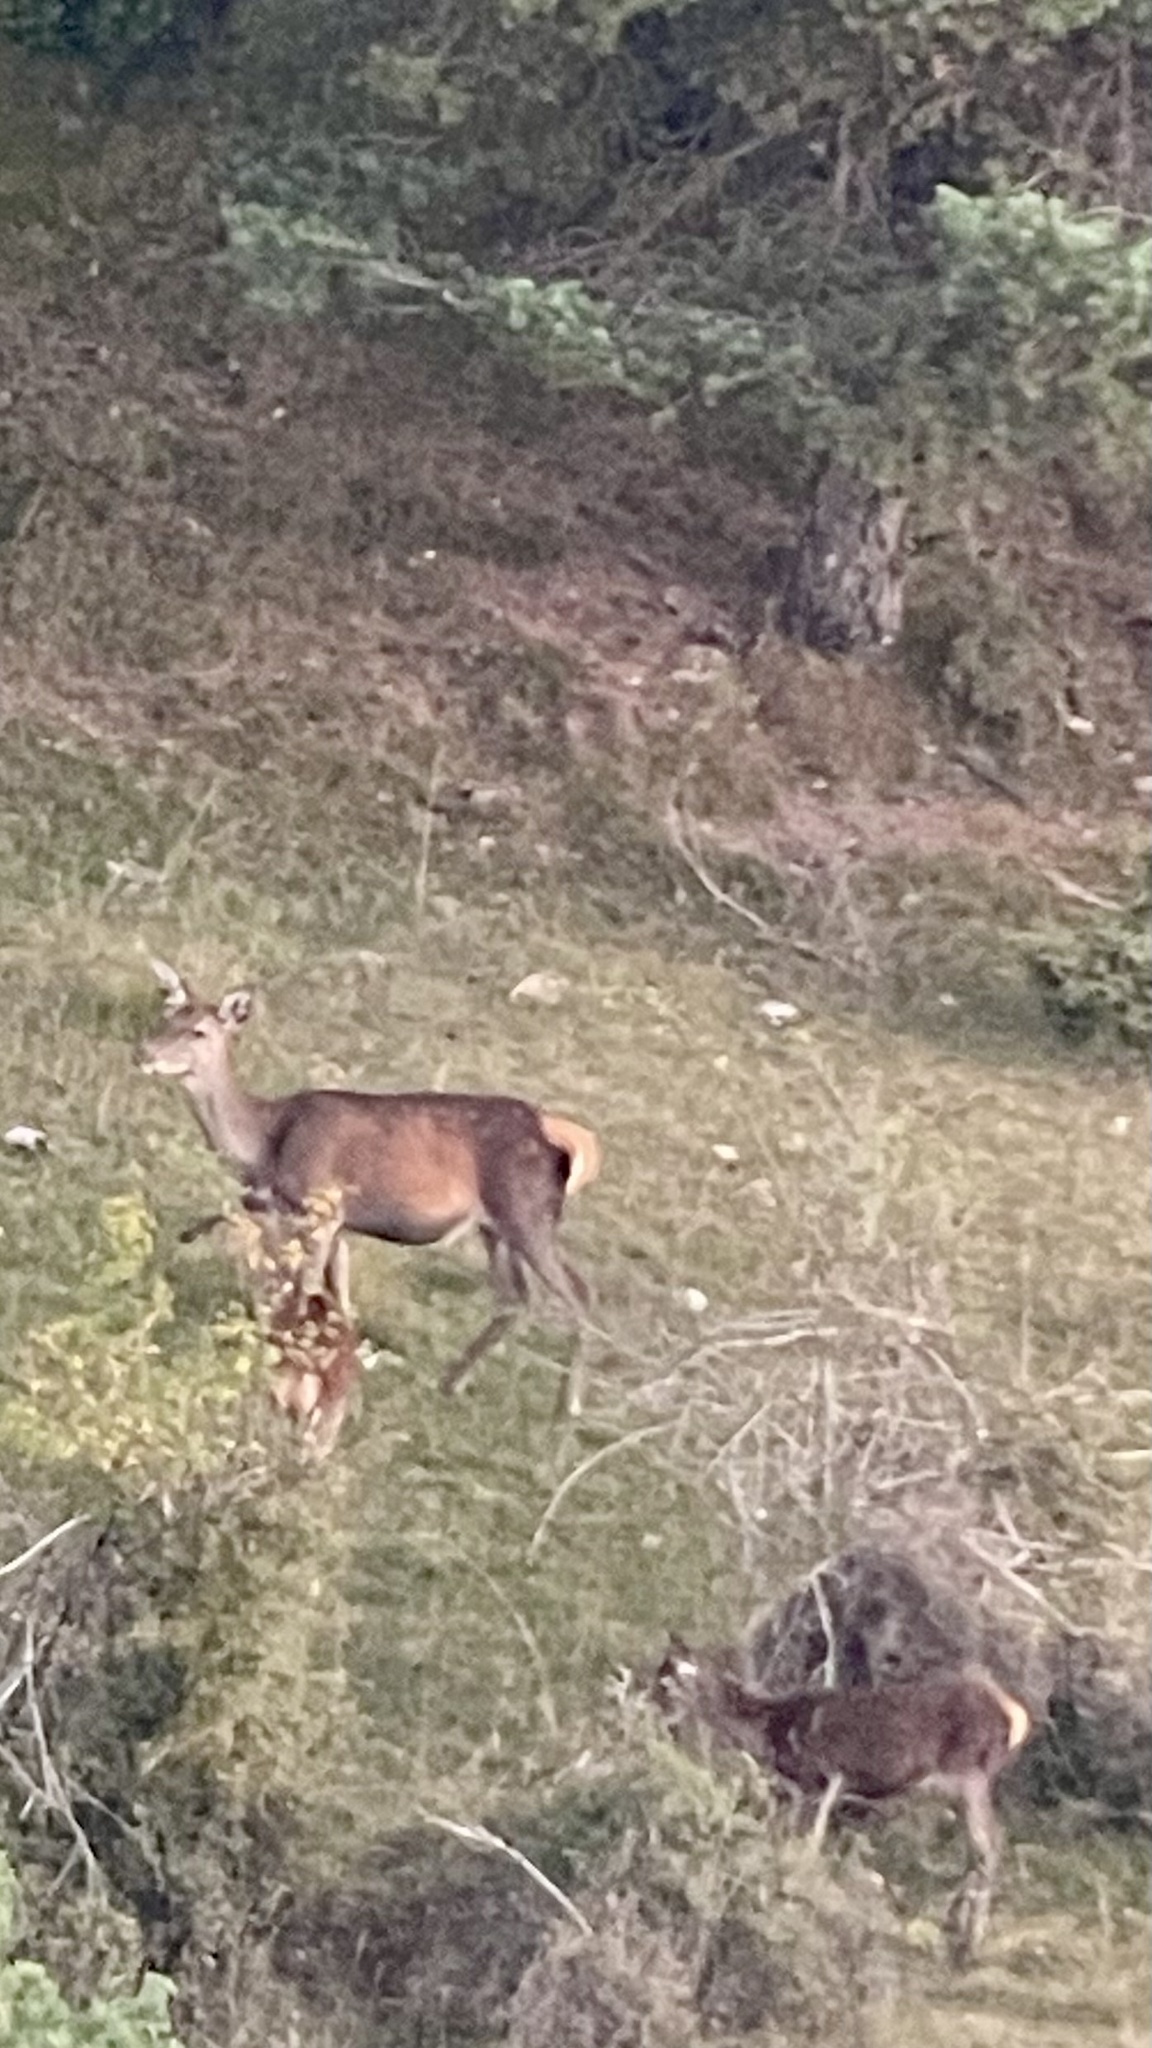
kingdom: Animalia
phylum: Chordata
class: Mammalia
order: Artiodactyla
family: Cervidae
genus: Cervus
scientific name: Cervus elaphus
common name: Red deer
